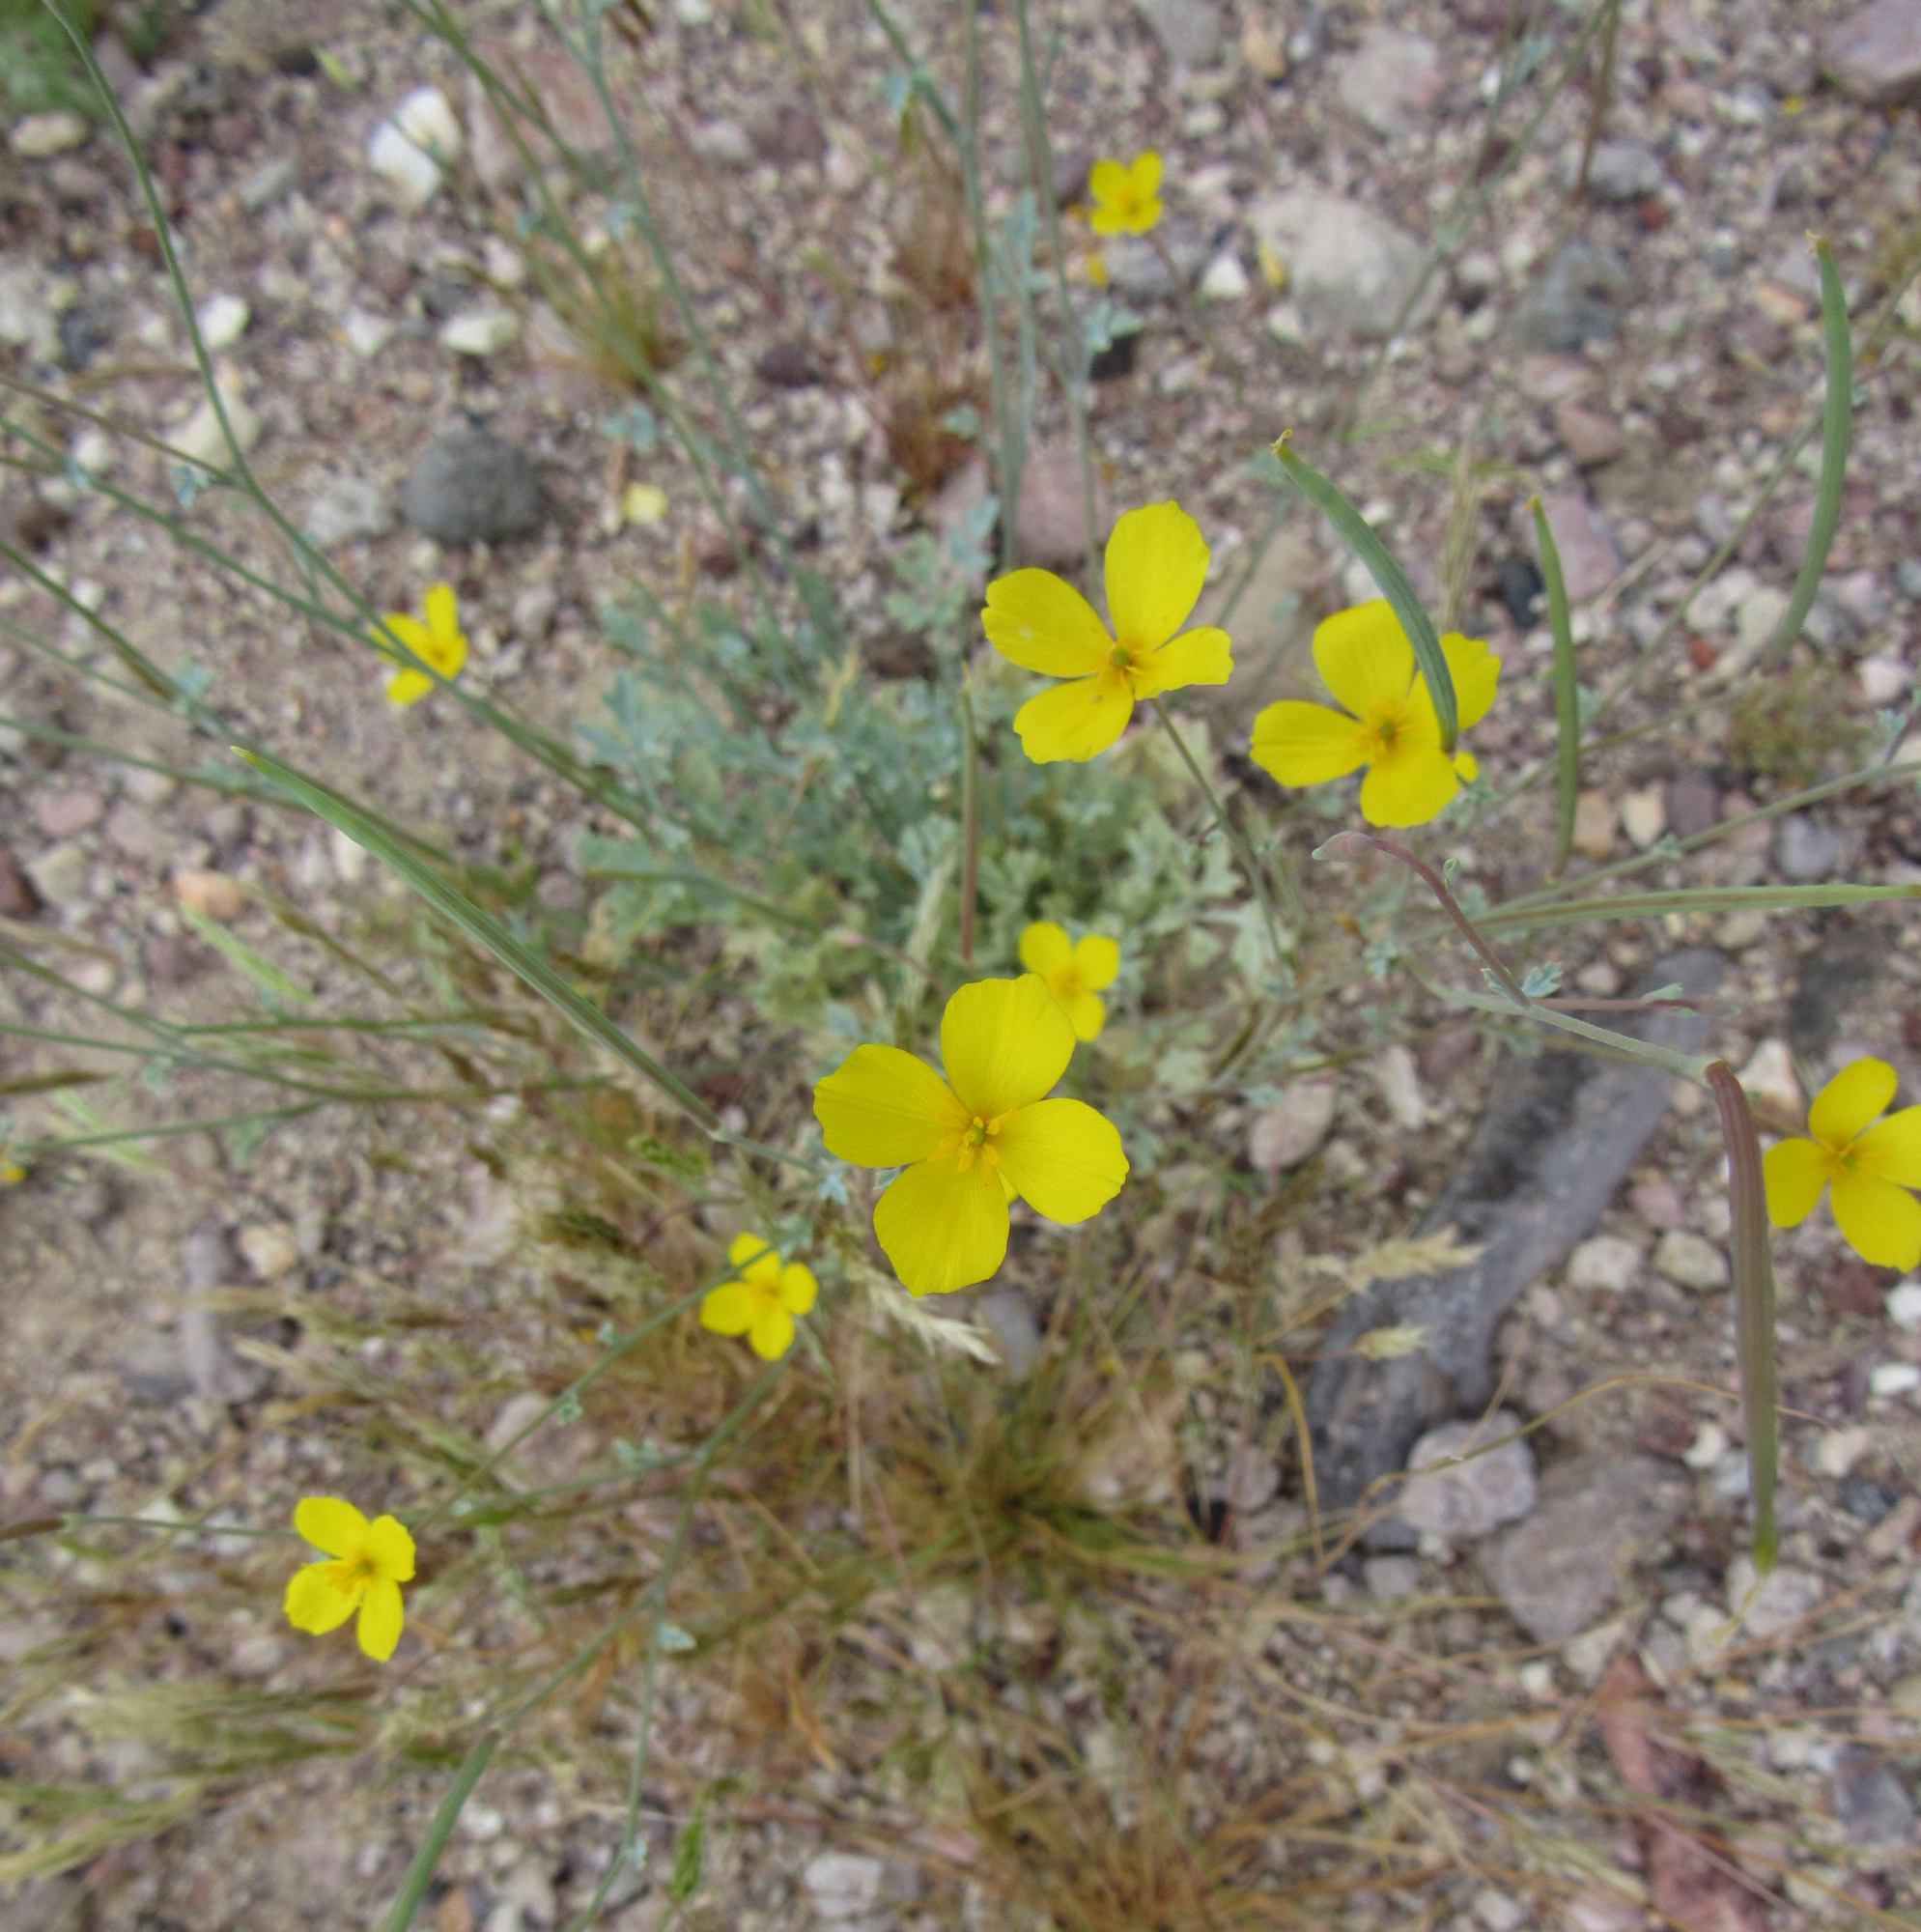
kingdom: Plantae
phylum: Tracheophyta
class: Magnoliopsida
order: Ranunculales
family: Papaveraceae
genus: Eschscholzia
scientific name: Eschscholzia minutiflora
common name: Small-flower california-poppy
